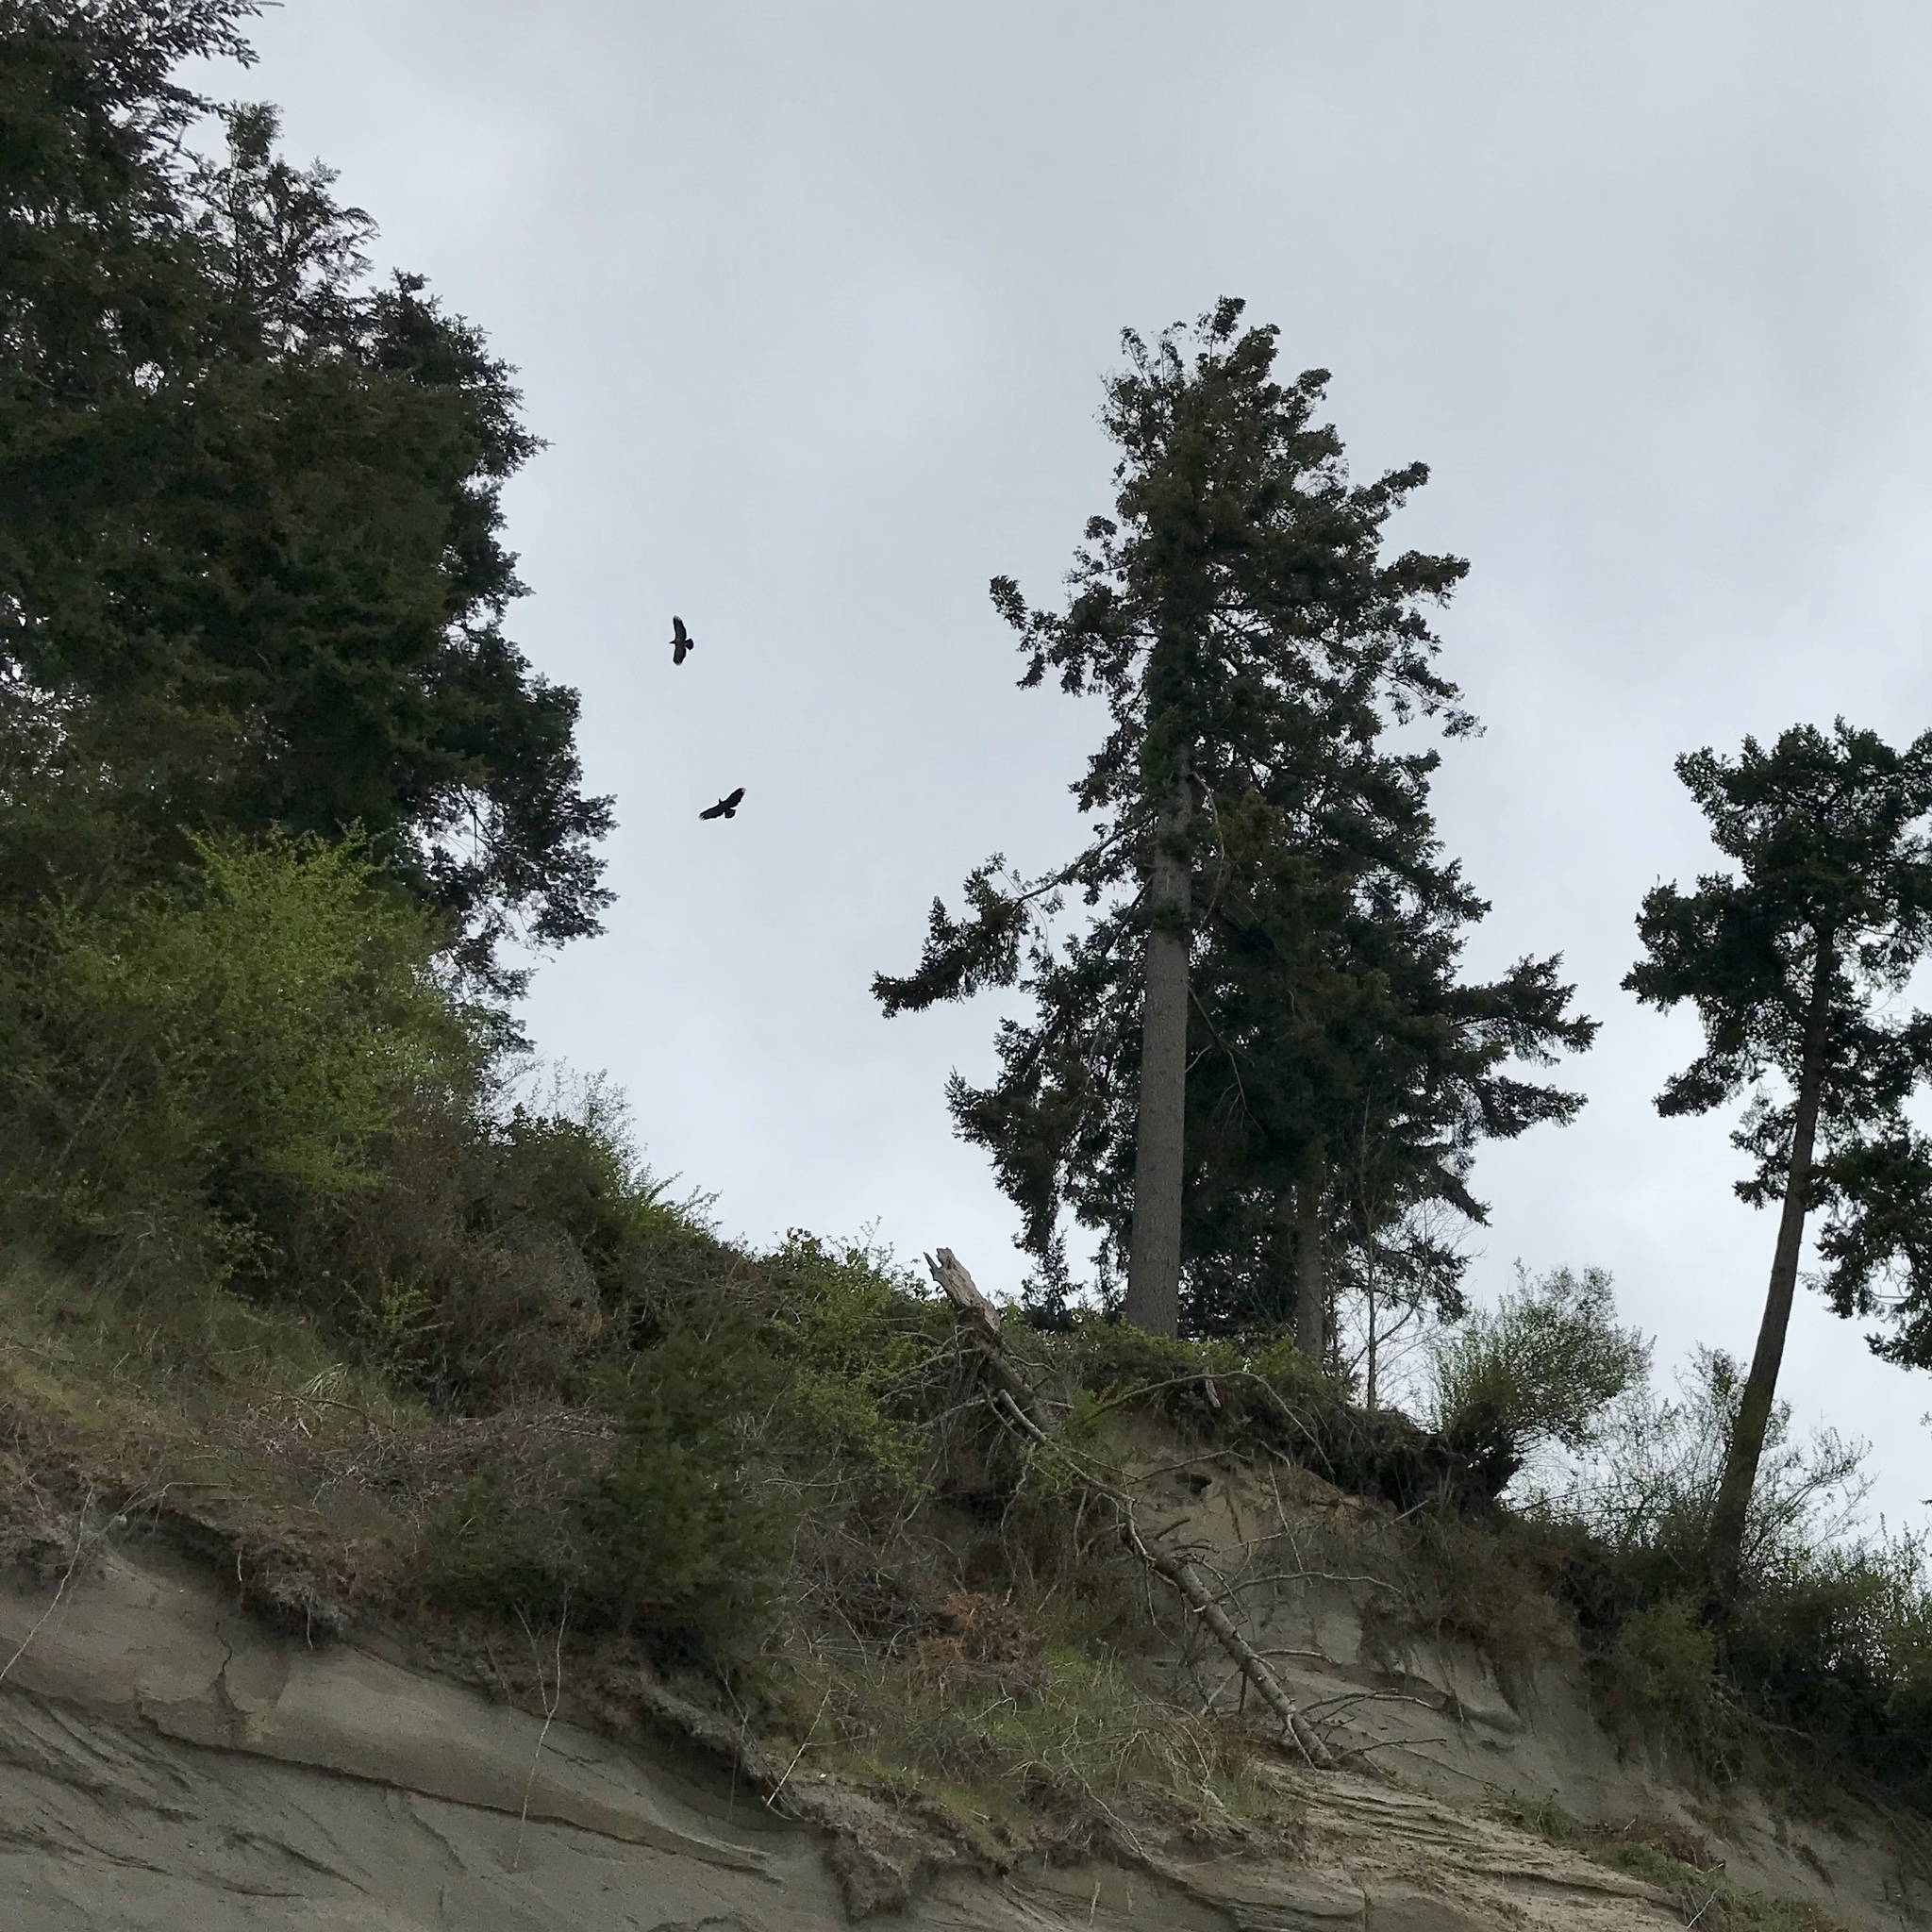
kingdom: Animalia
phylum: Chordata
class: Aves
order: Accipitriformes
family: Accipitridae
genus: Haliaeetus
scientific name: Haliaeetus leucocephalus
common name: Bald eagle
